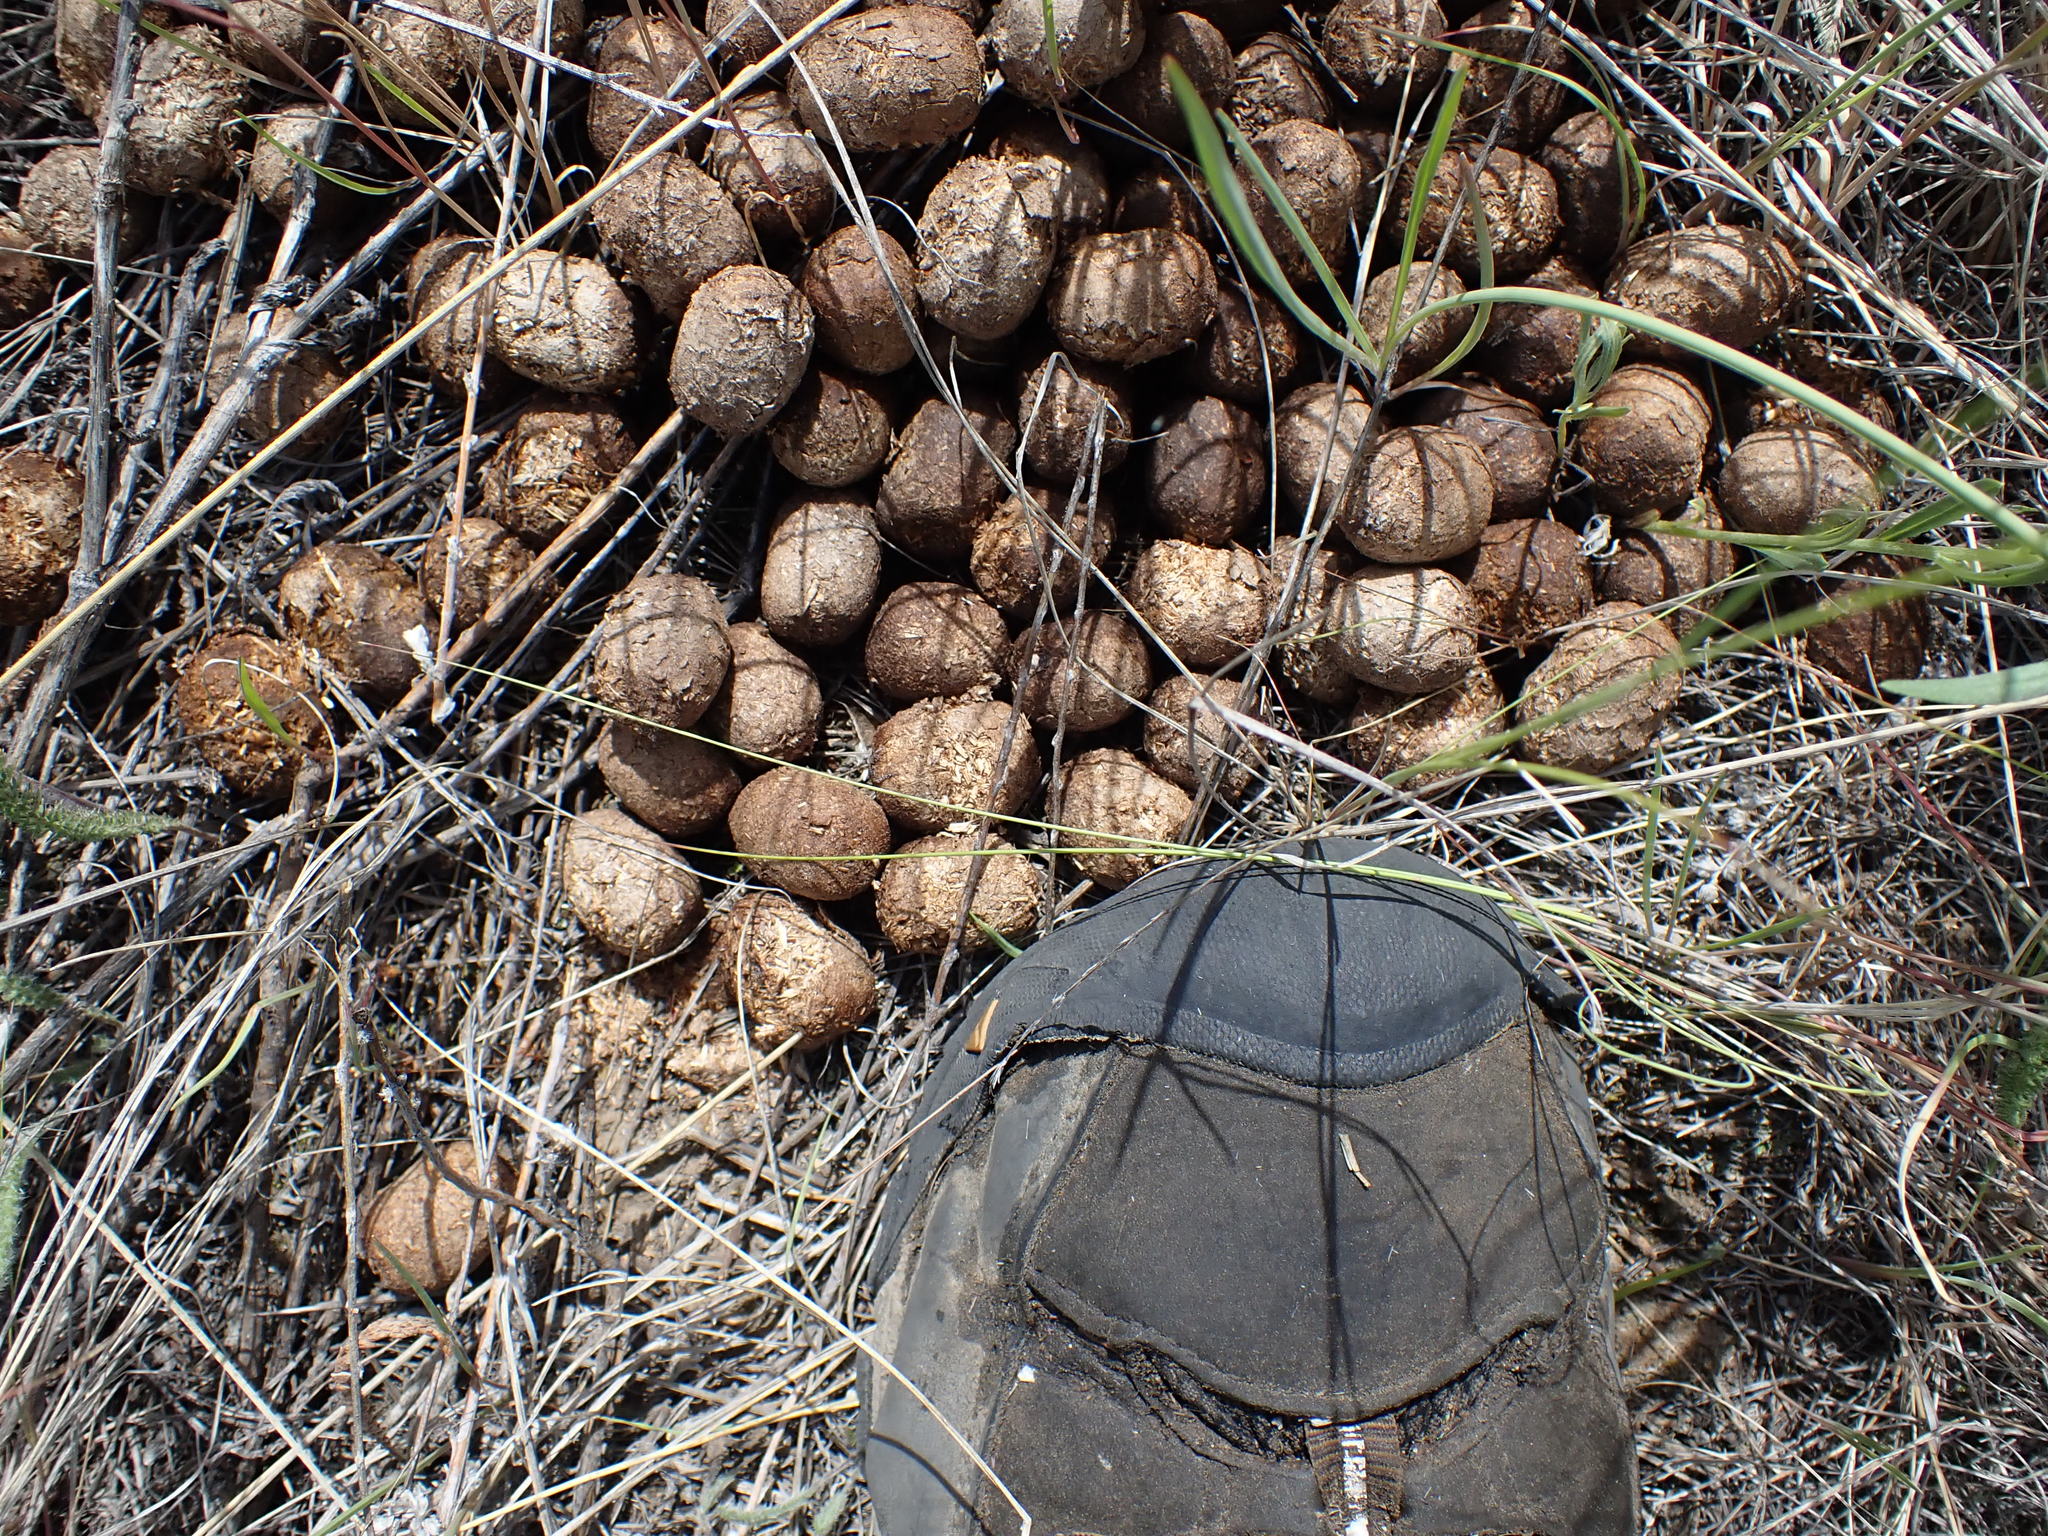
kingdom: Animalia
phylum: Chordata
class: Mammalia
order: Artiodactyla
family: Cervidae
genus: Alces
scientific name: Alces alces
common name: Moose
